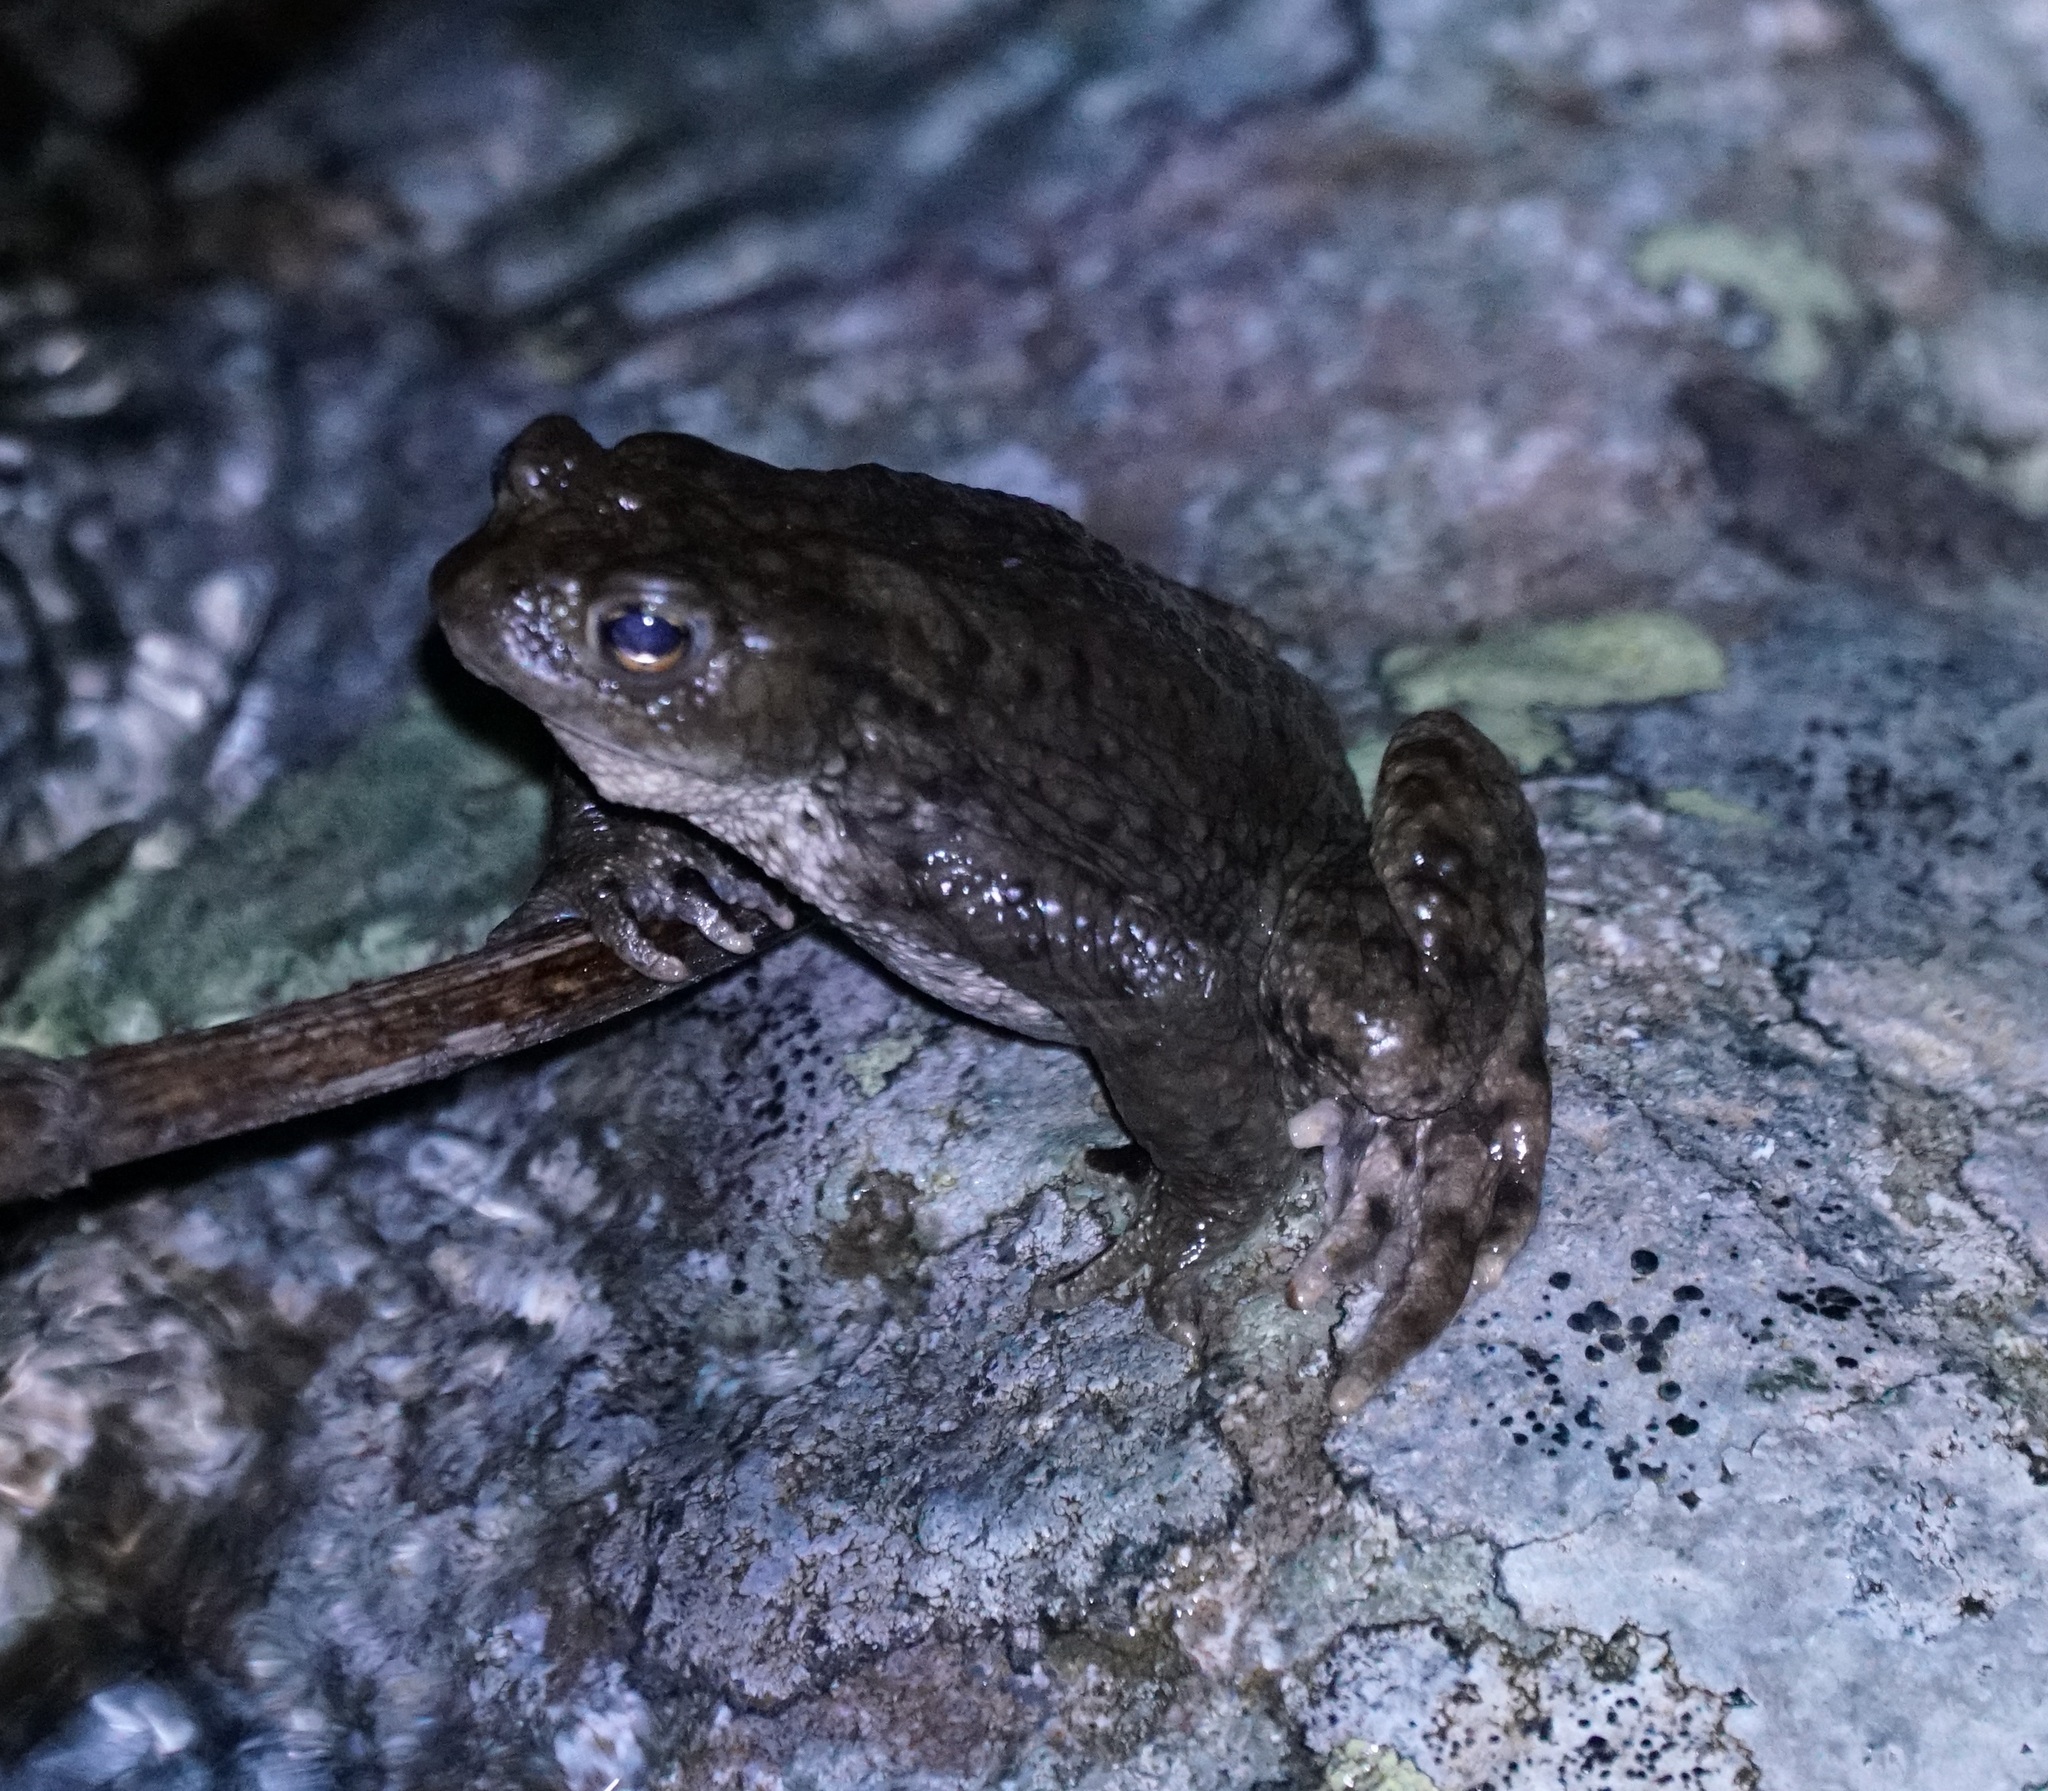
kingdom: Animalia
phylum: Chordata
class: Amphibia
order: Anura
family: Bufonidae
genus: Bufo
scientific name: Bufo bufo
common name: Common toad
